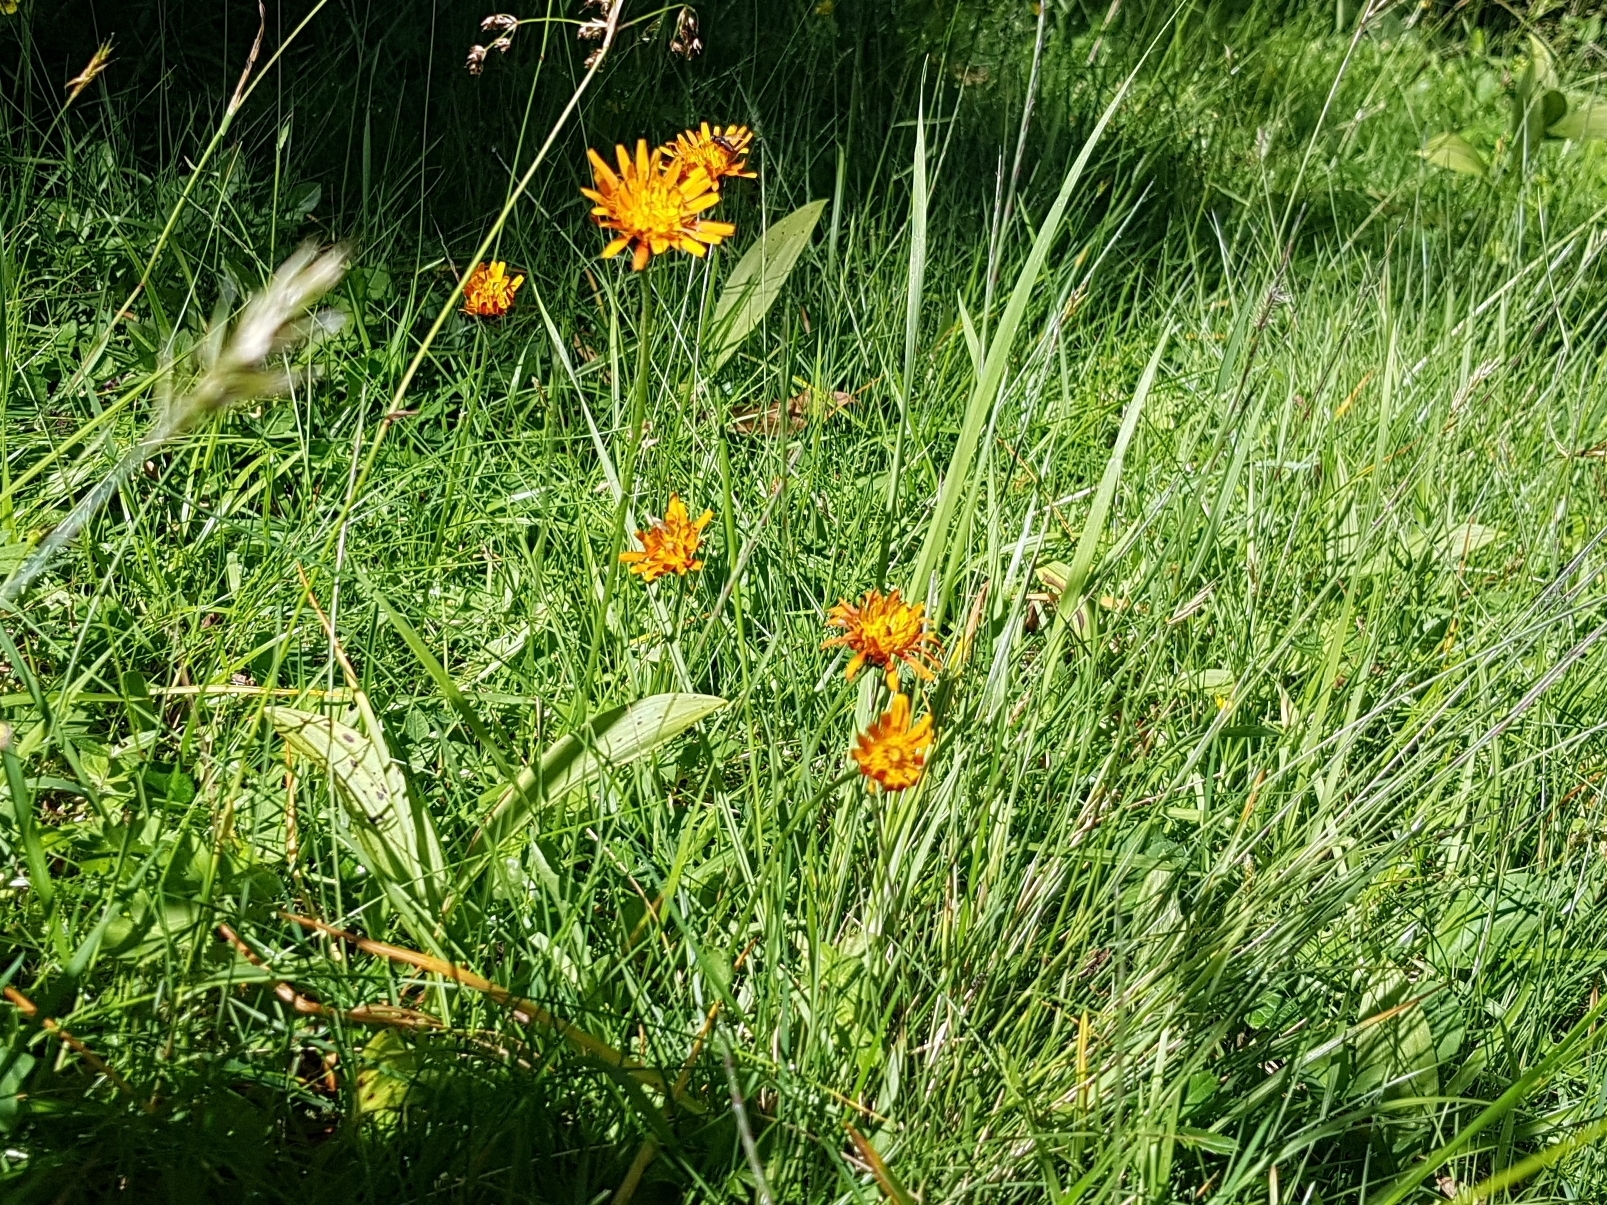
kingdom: Plantae
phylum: Tracheophyta
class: Magnoliopsida
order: Asterales
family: Asteraceae
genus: Crepis
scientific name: Crepis aurea
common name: Golden hawk's-beard
